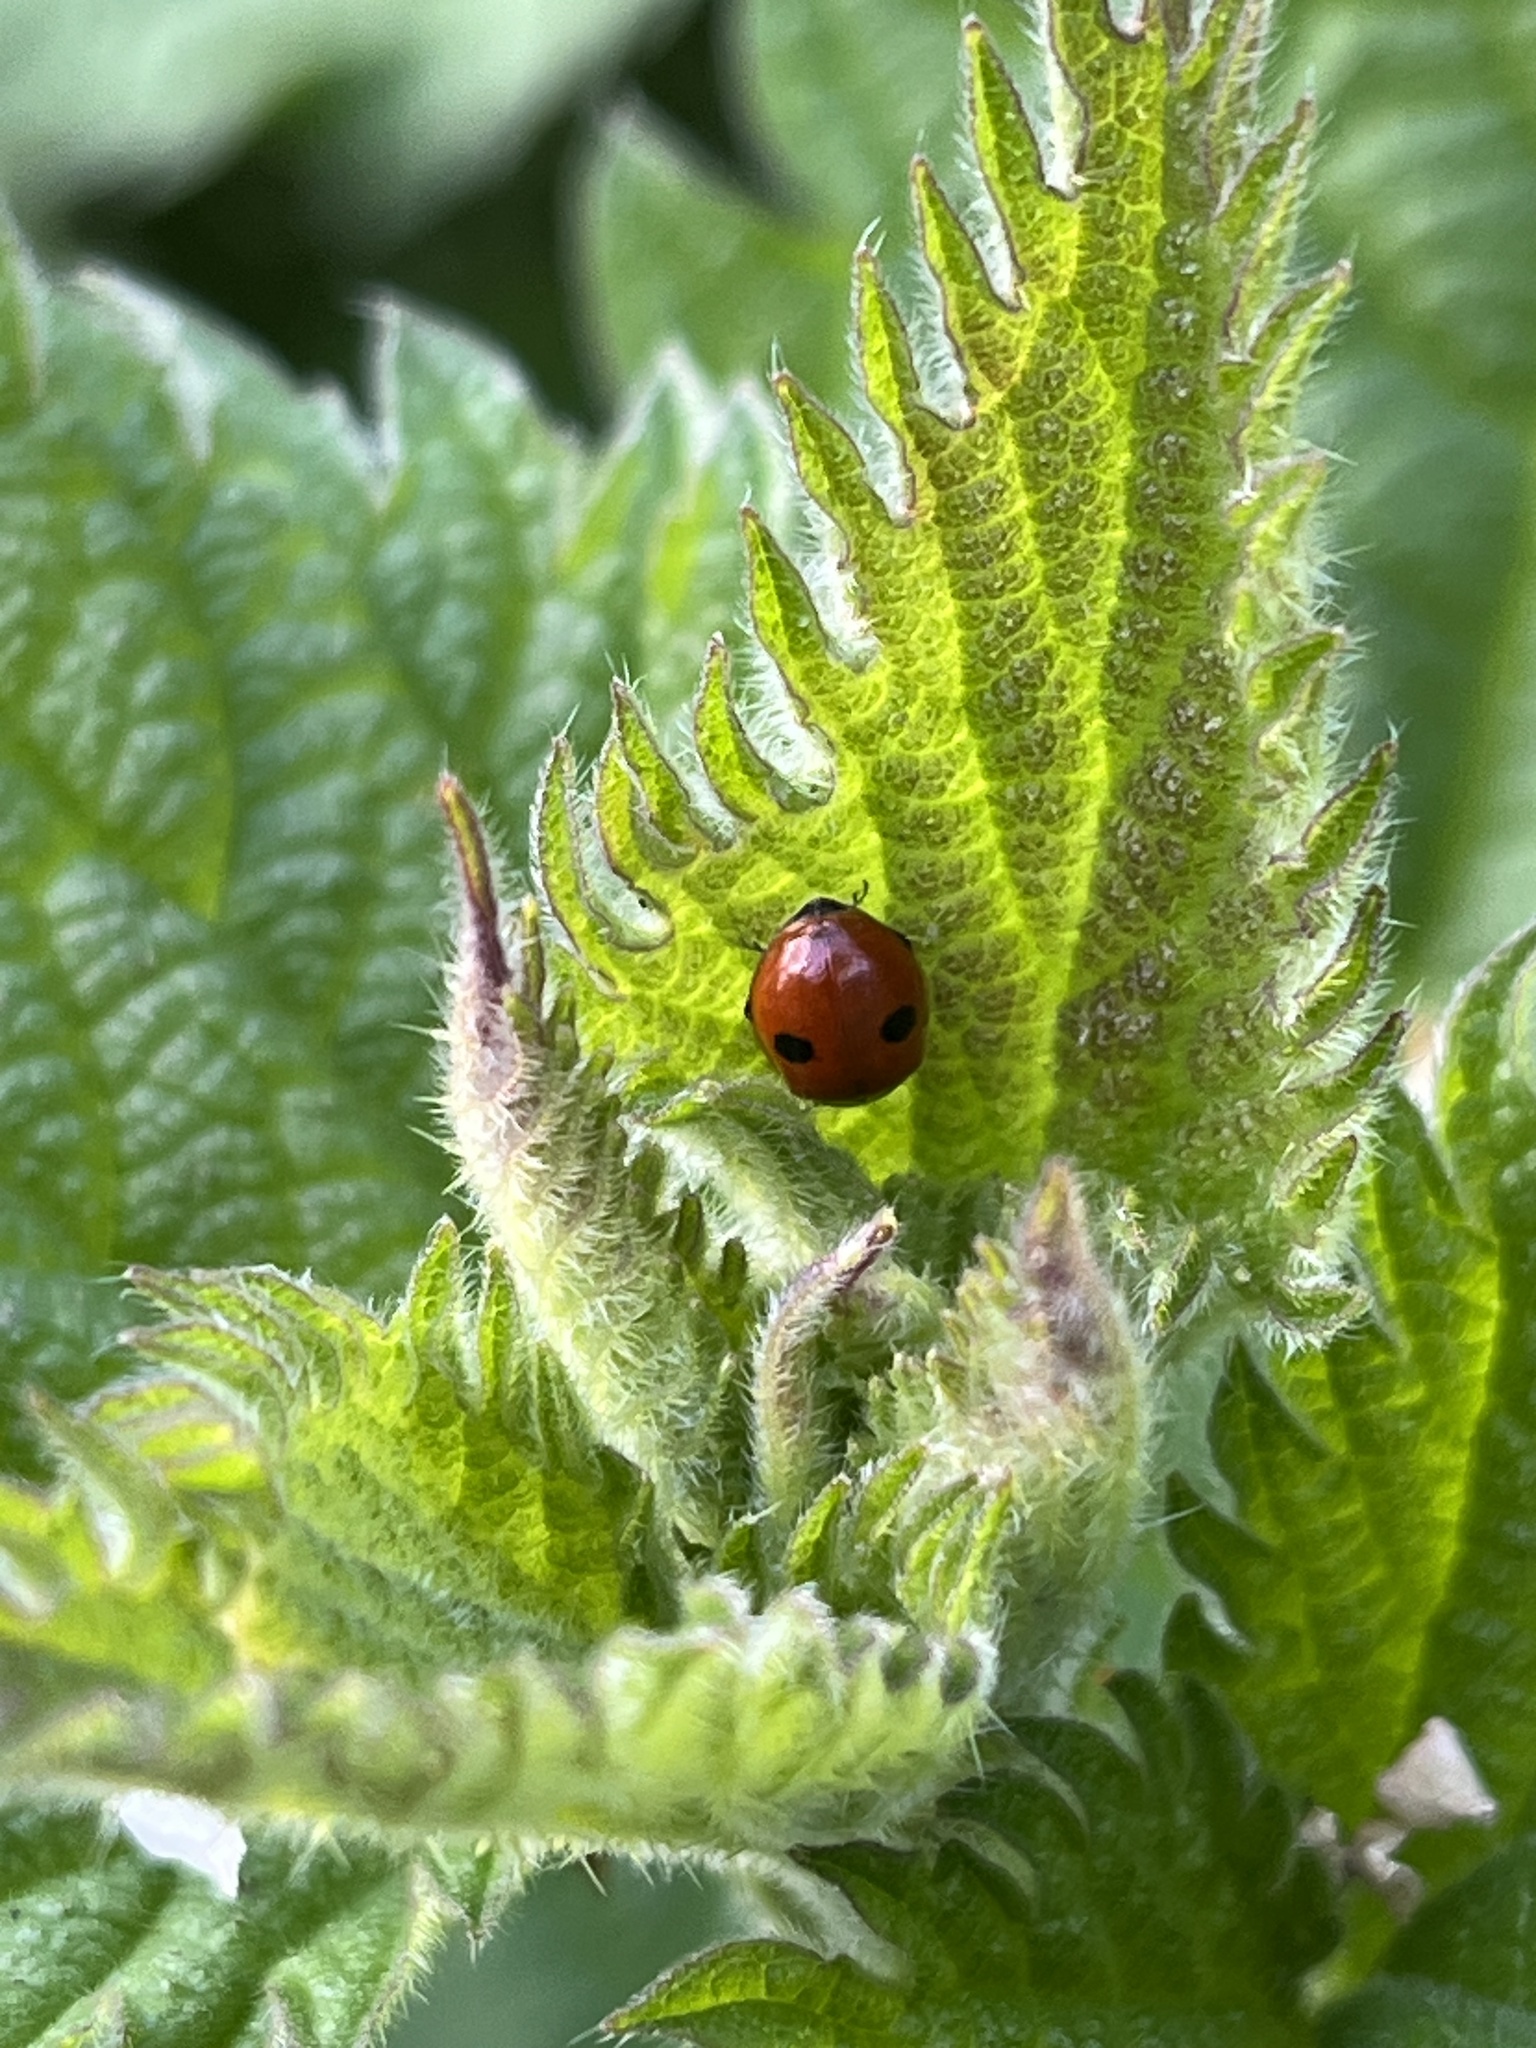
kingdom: Animalia
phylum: Arthropoda
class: Insecta
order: Coleoptera
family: Coccinellidae
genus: Adalia
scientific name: Adalia bipunctata
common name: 2-spot ladybird
